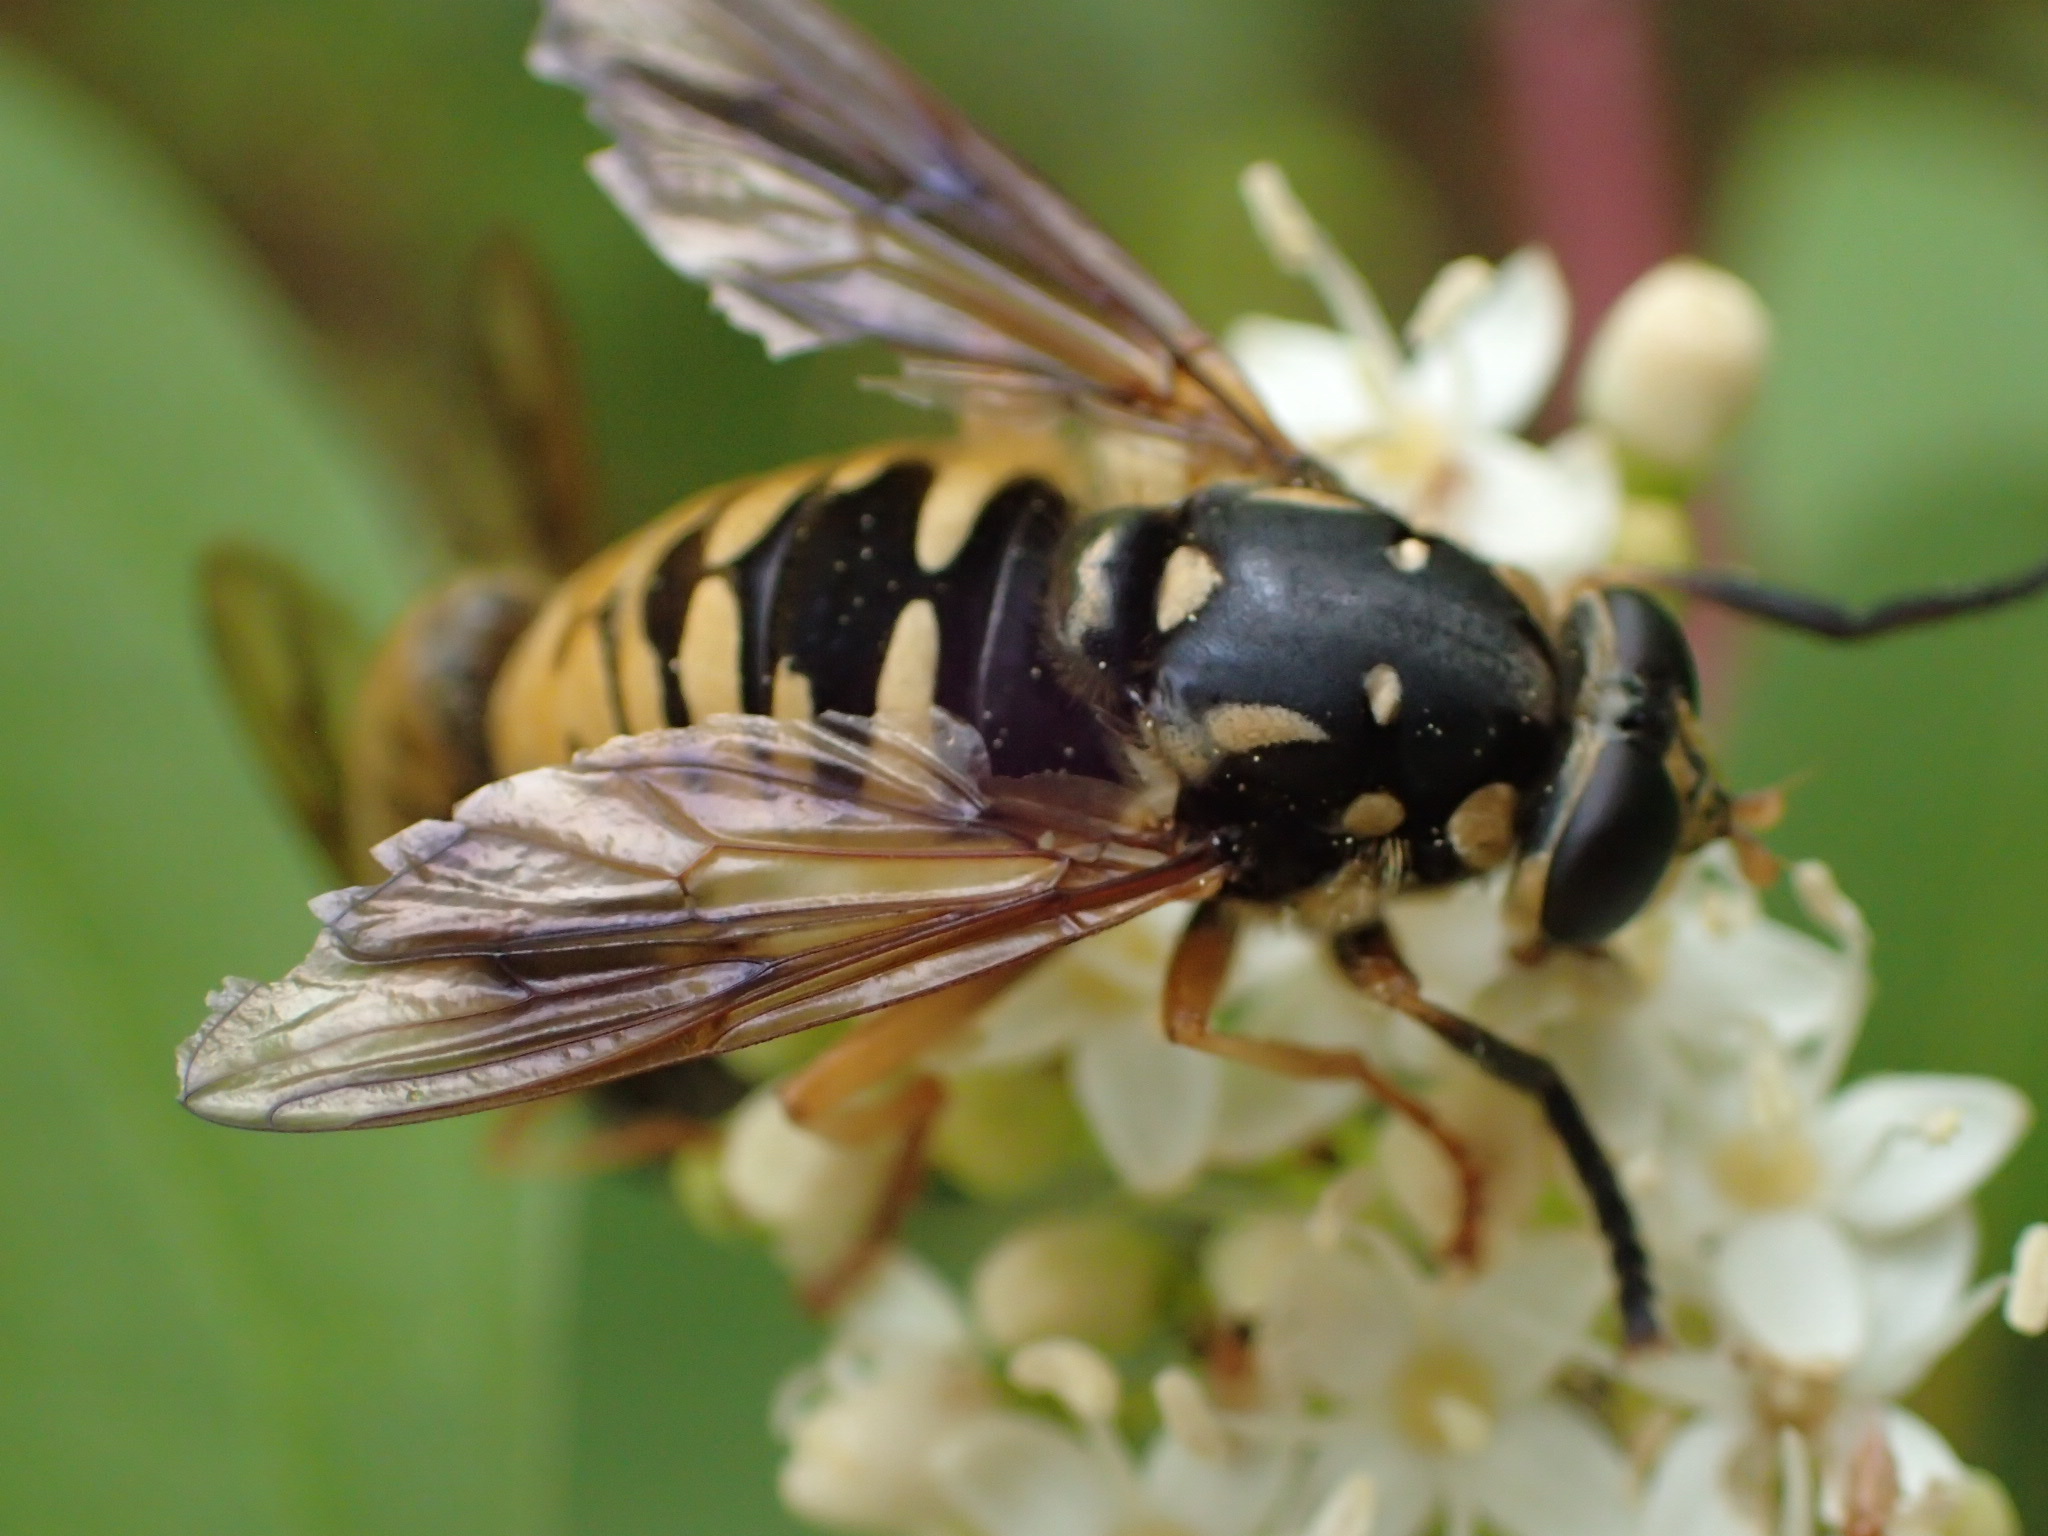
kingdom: Animalia
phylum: Arthropoda
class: Insecta
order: Diptera
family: Syrphidae
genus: Temnostoma
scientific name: Temnostoma alternans
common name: Wasp-like falsehorn
